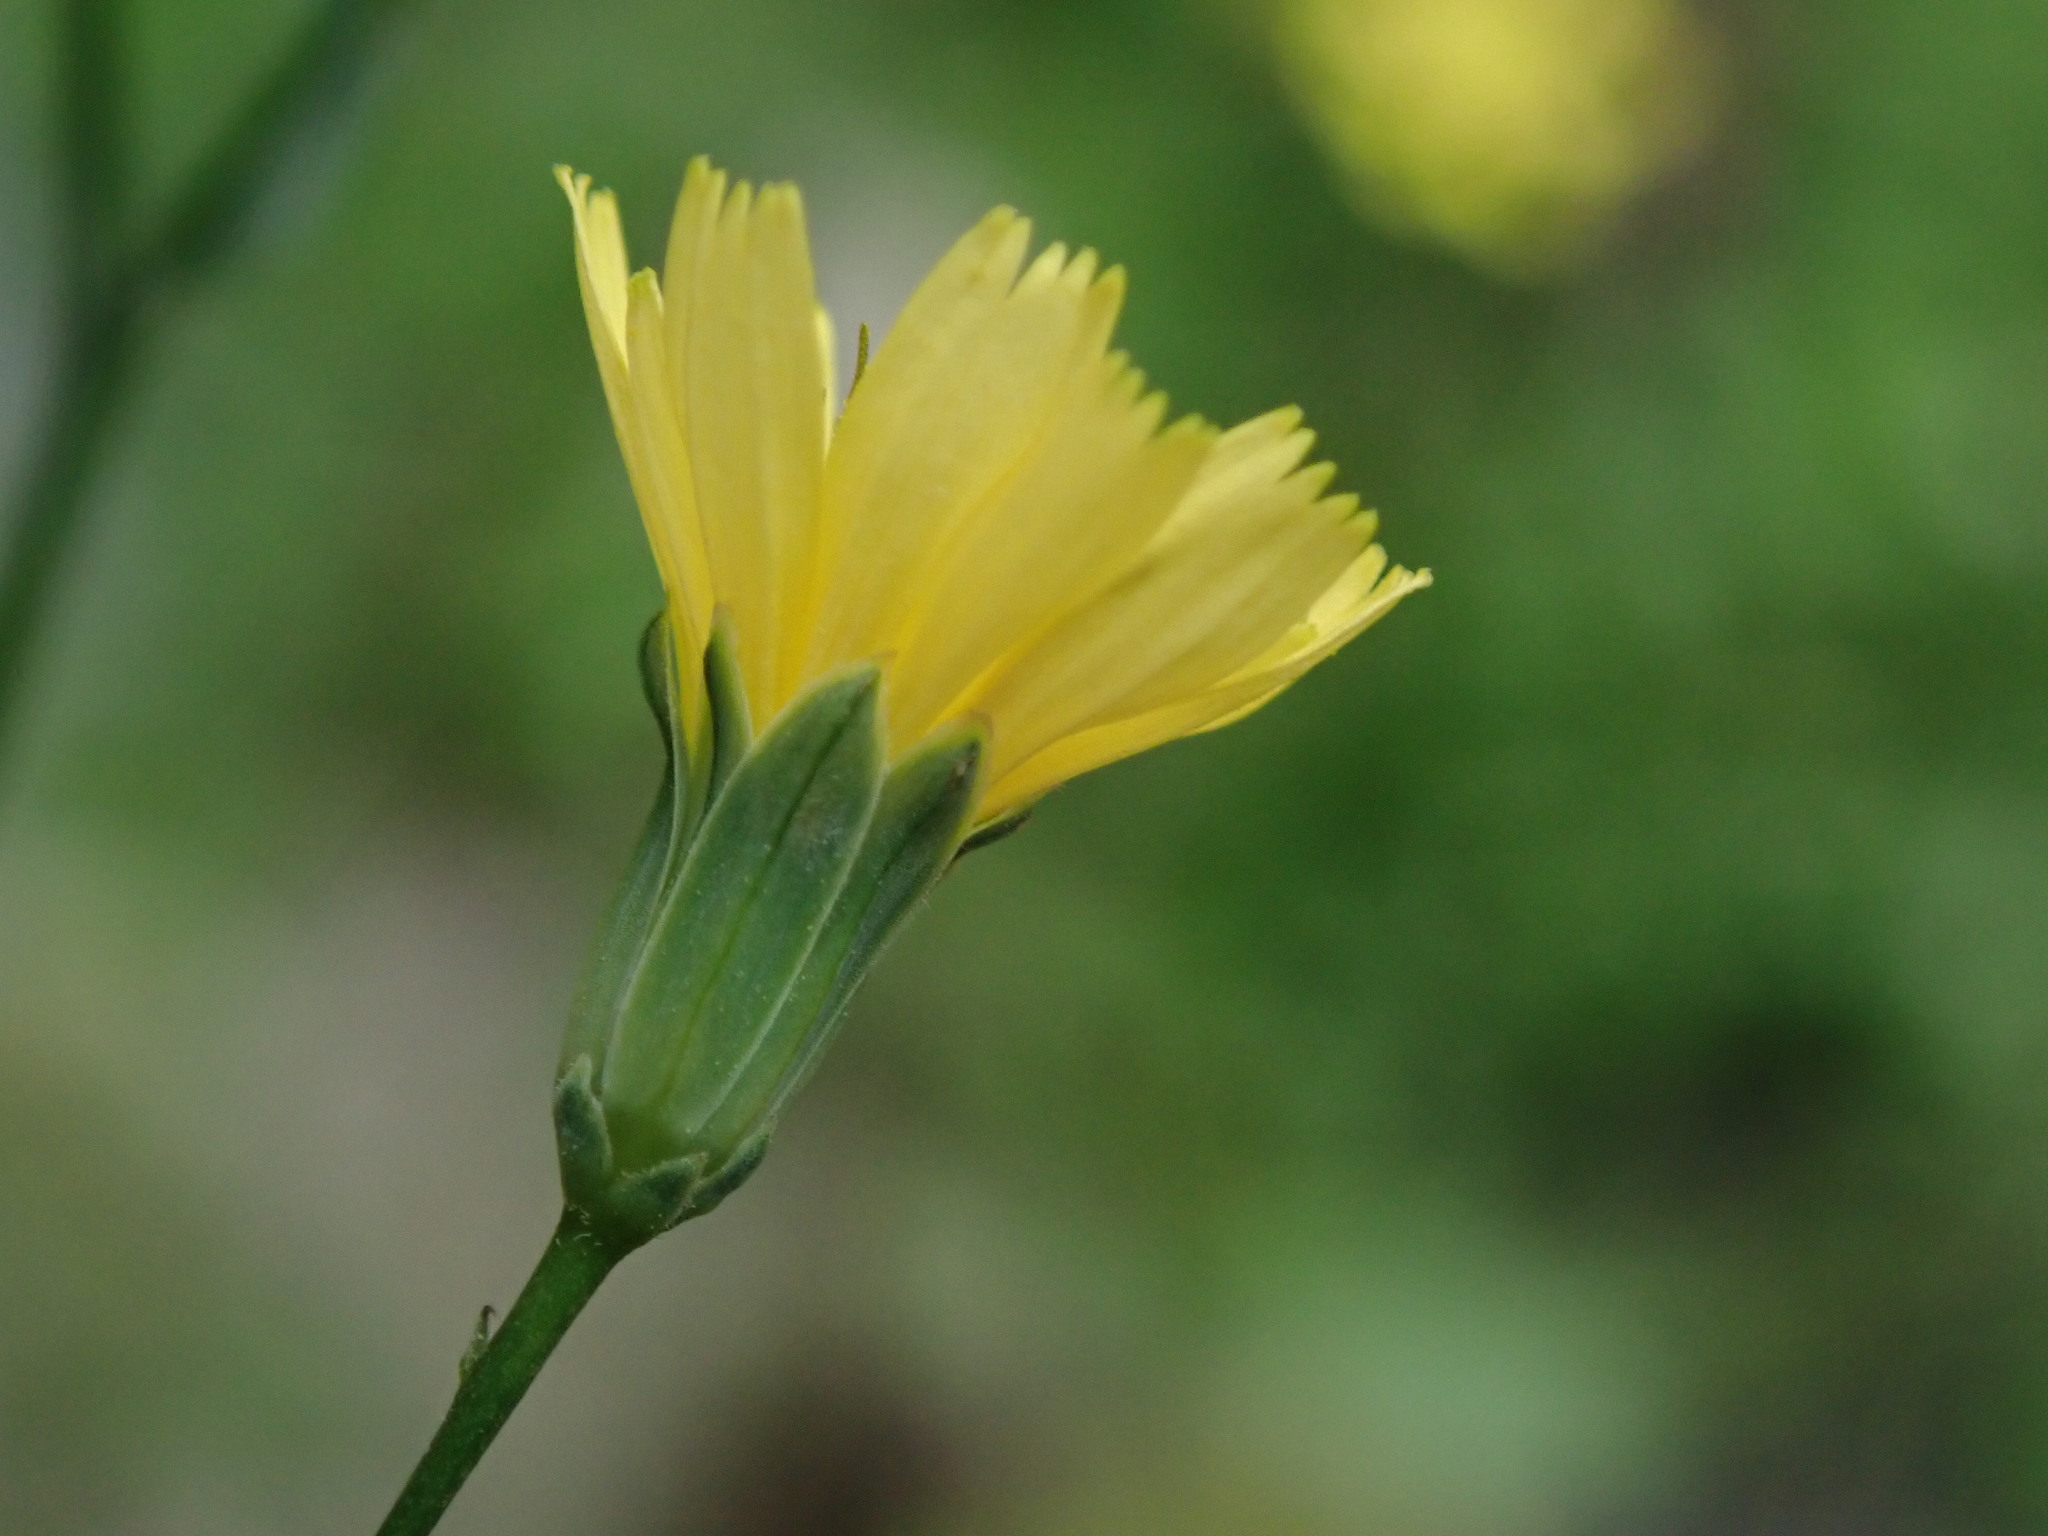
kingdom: Plantae
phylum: Tracheophyta
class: Magnoliopsida
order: Asterales
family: Asteraceae
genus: Lapsana
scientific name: Lapsana communis
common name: Nipplewort
